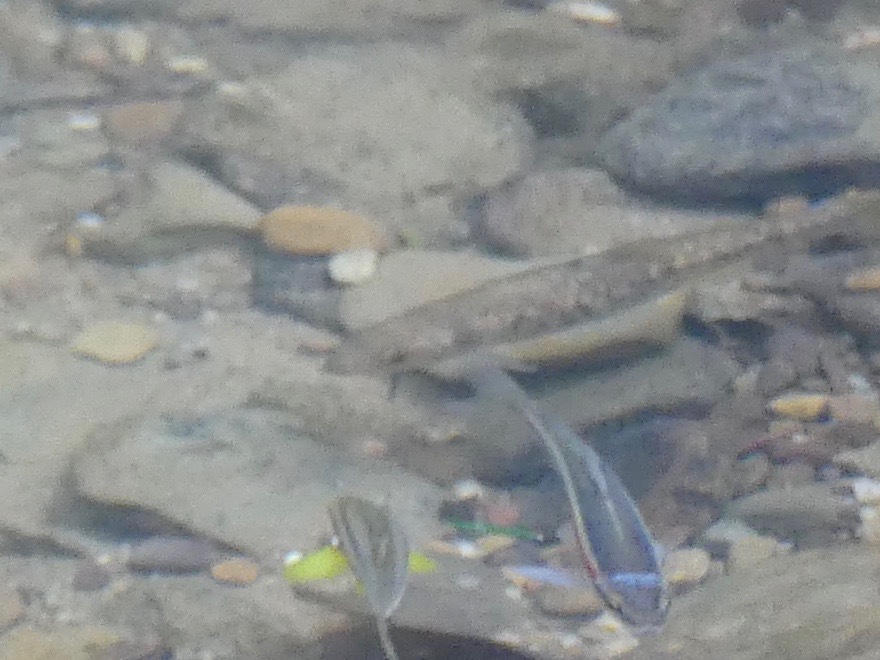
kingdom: Animalia
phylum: Chordata
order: Cypriniformes
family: Cyprinidae
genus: Campostoma
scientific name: Campostoma anomalum
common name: Central stoneroller
